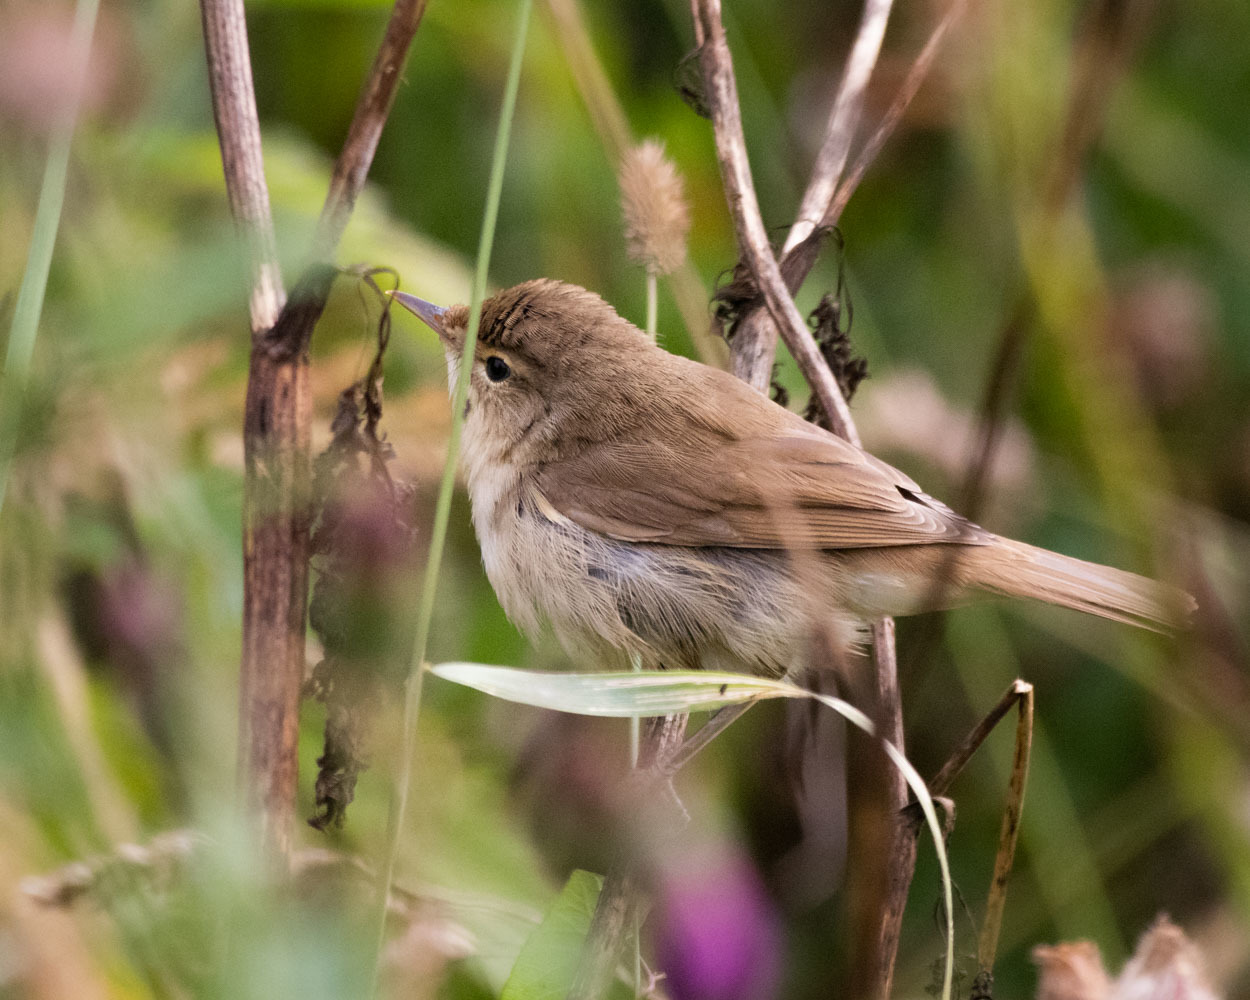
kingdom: Animalia
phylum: Chordata
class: Aves
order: Passeriformes
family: Acrocephalidae
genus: Acrocephalus
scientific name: Acrocephalus dumetorum
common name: Blyth's reed warbler
